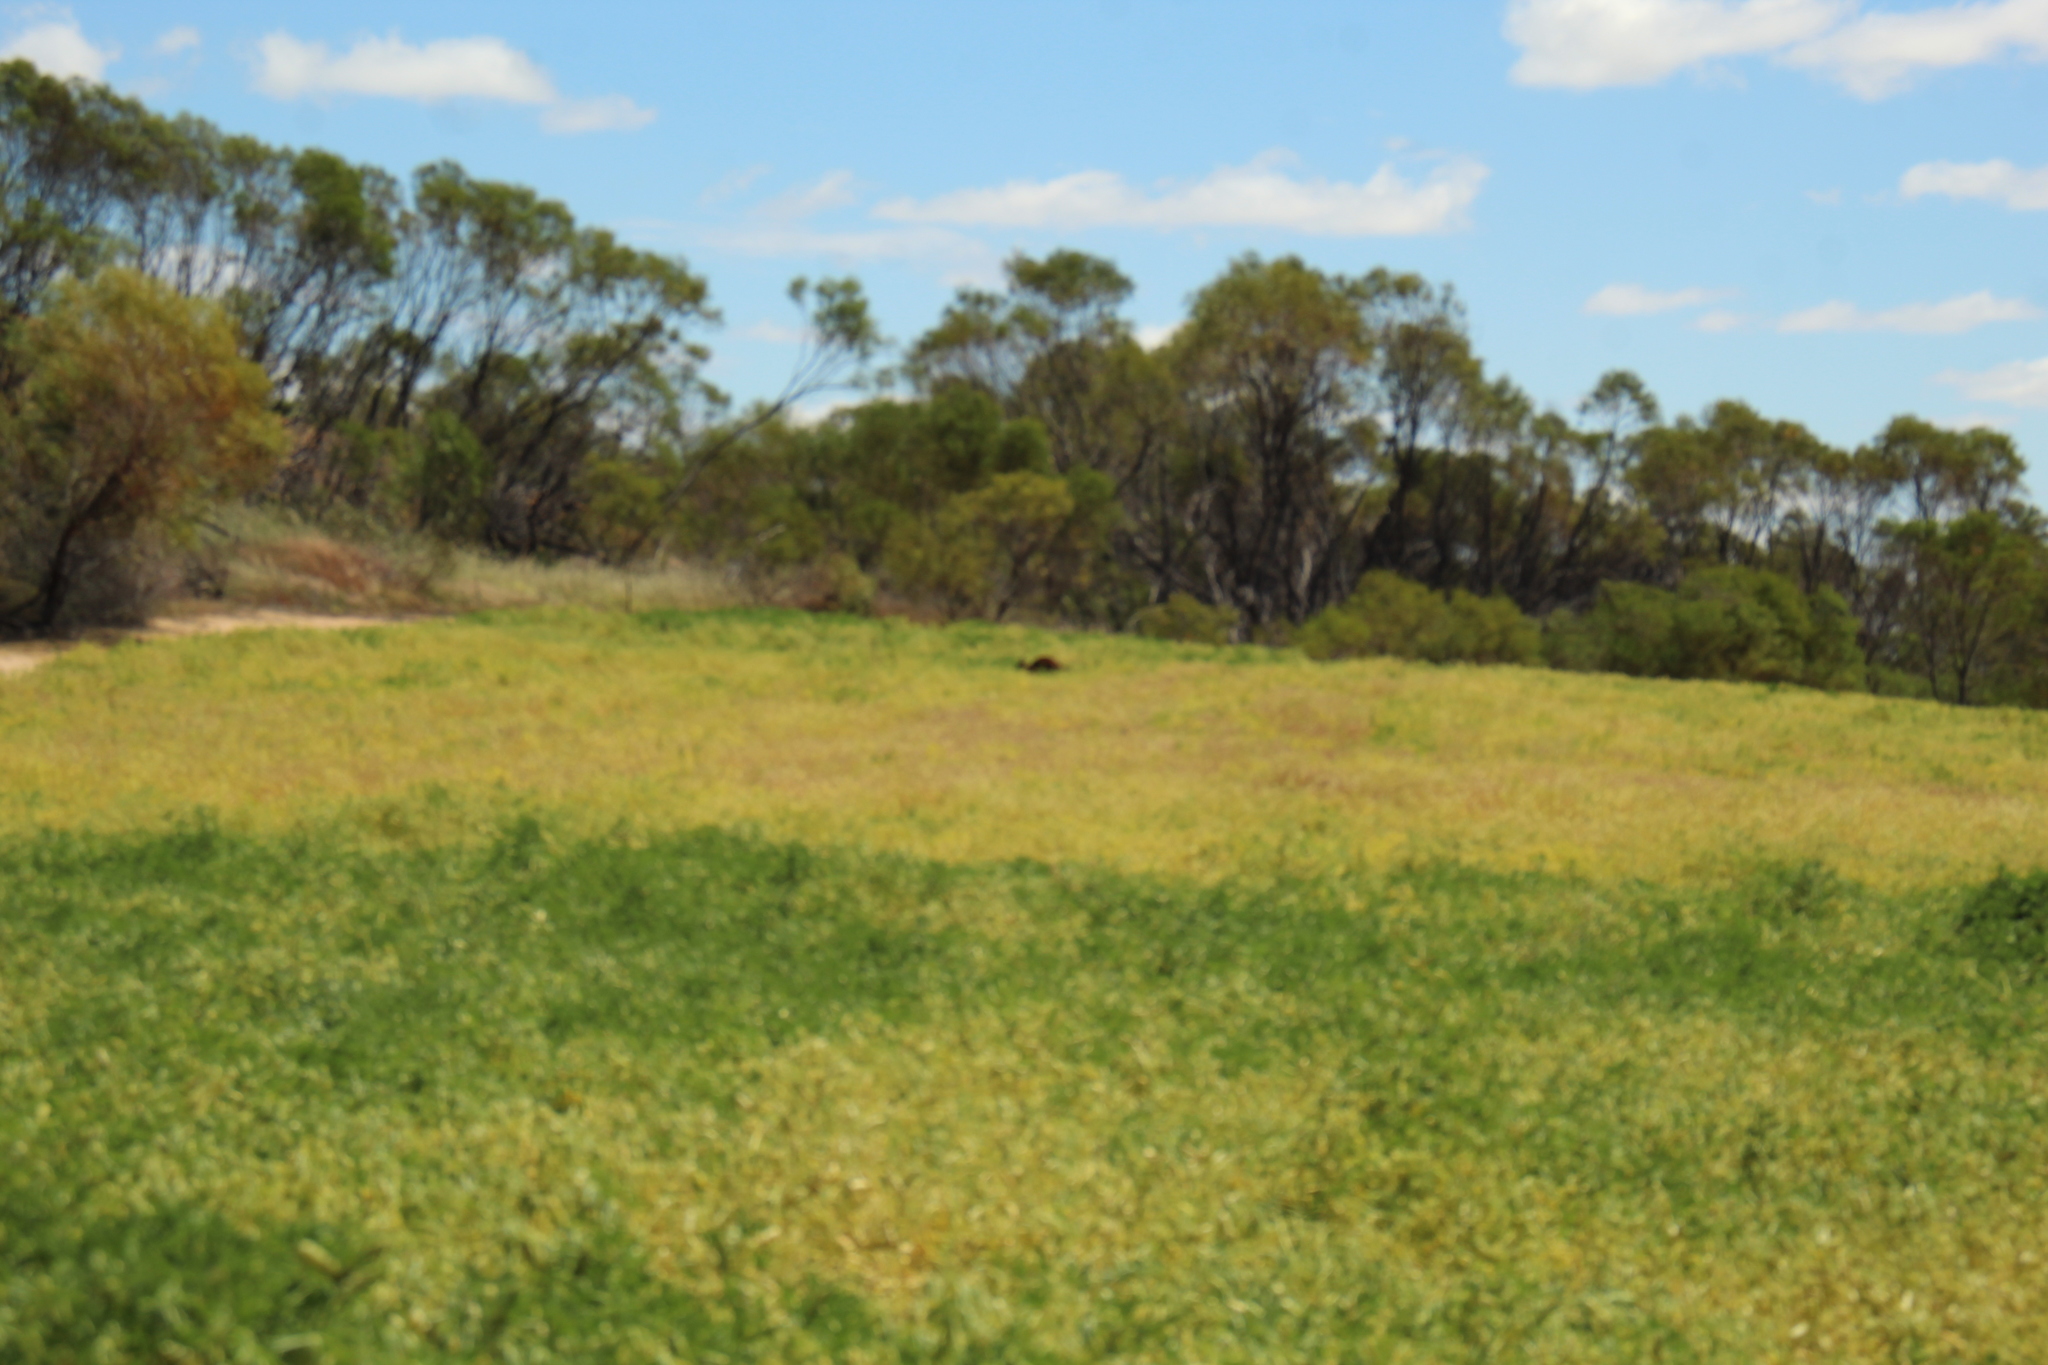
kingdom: Animalia
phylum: Chordata
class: Mammalia
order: Diprotodontia
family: Macropodidae
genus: Macropus
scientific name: Macropus robustus
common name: Eastern wallaroo
